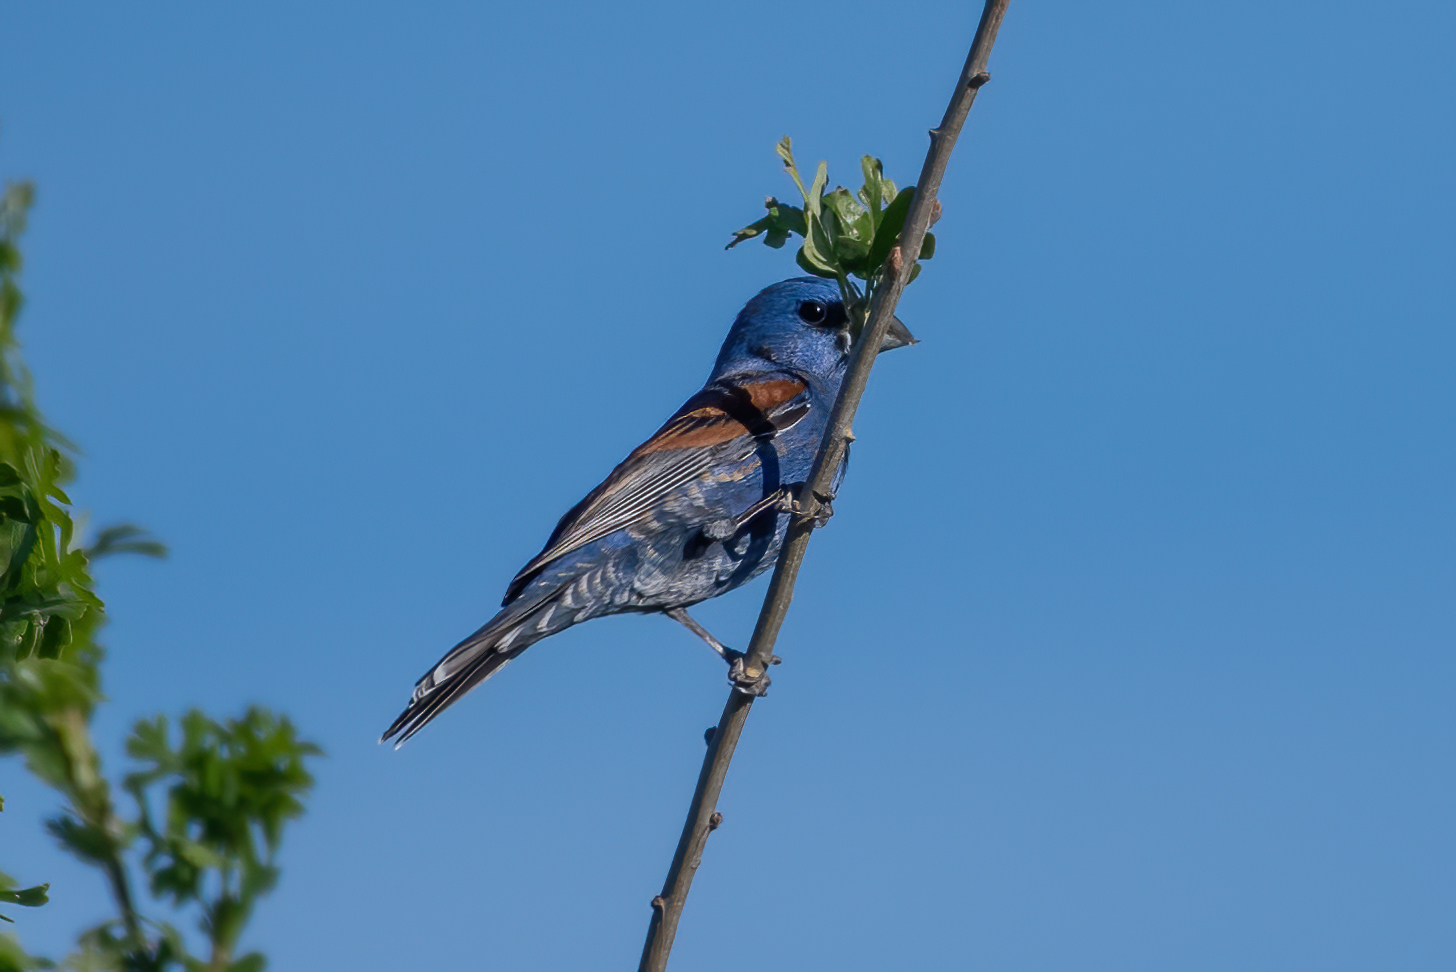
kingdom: Animalia
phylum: Chordata
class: Aves
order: Passeriformes
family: Cardinalidae
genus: Passerina
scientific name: Passerina caerulea
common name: Blue grosbeak
